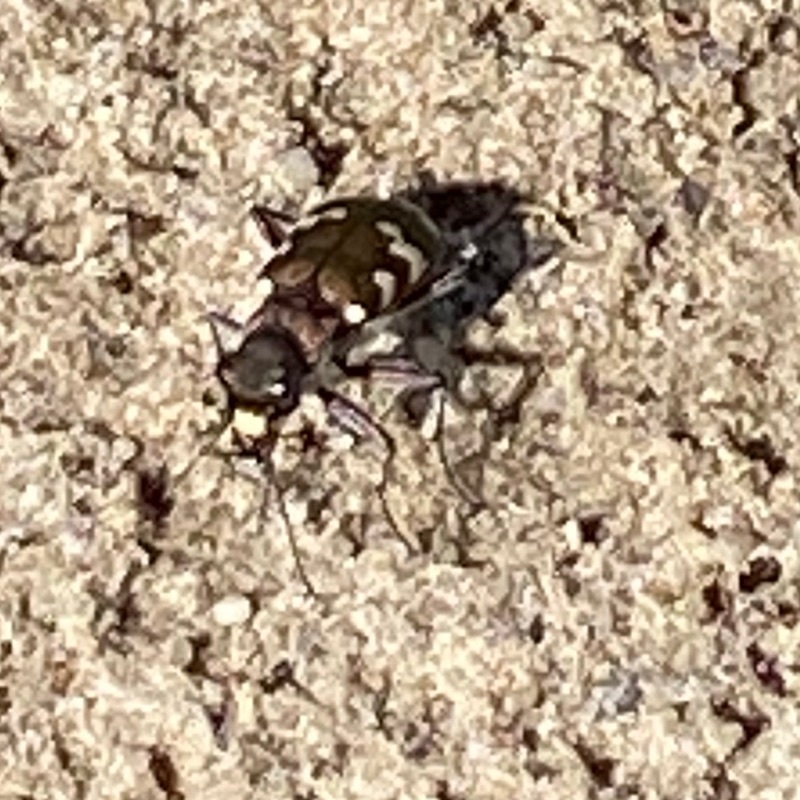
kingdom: Animalia
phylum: Arthropoda
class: Insecta
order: Coleoptera
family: Carabidae
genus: Cicindela
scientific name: Cicindela hybrida
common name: Northern dune tiger beetle
